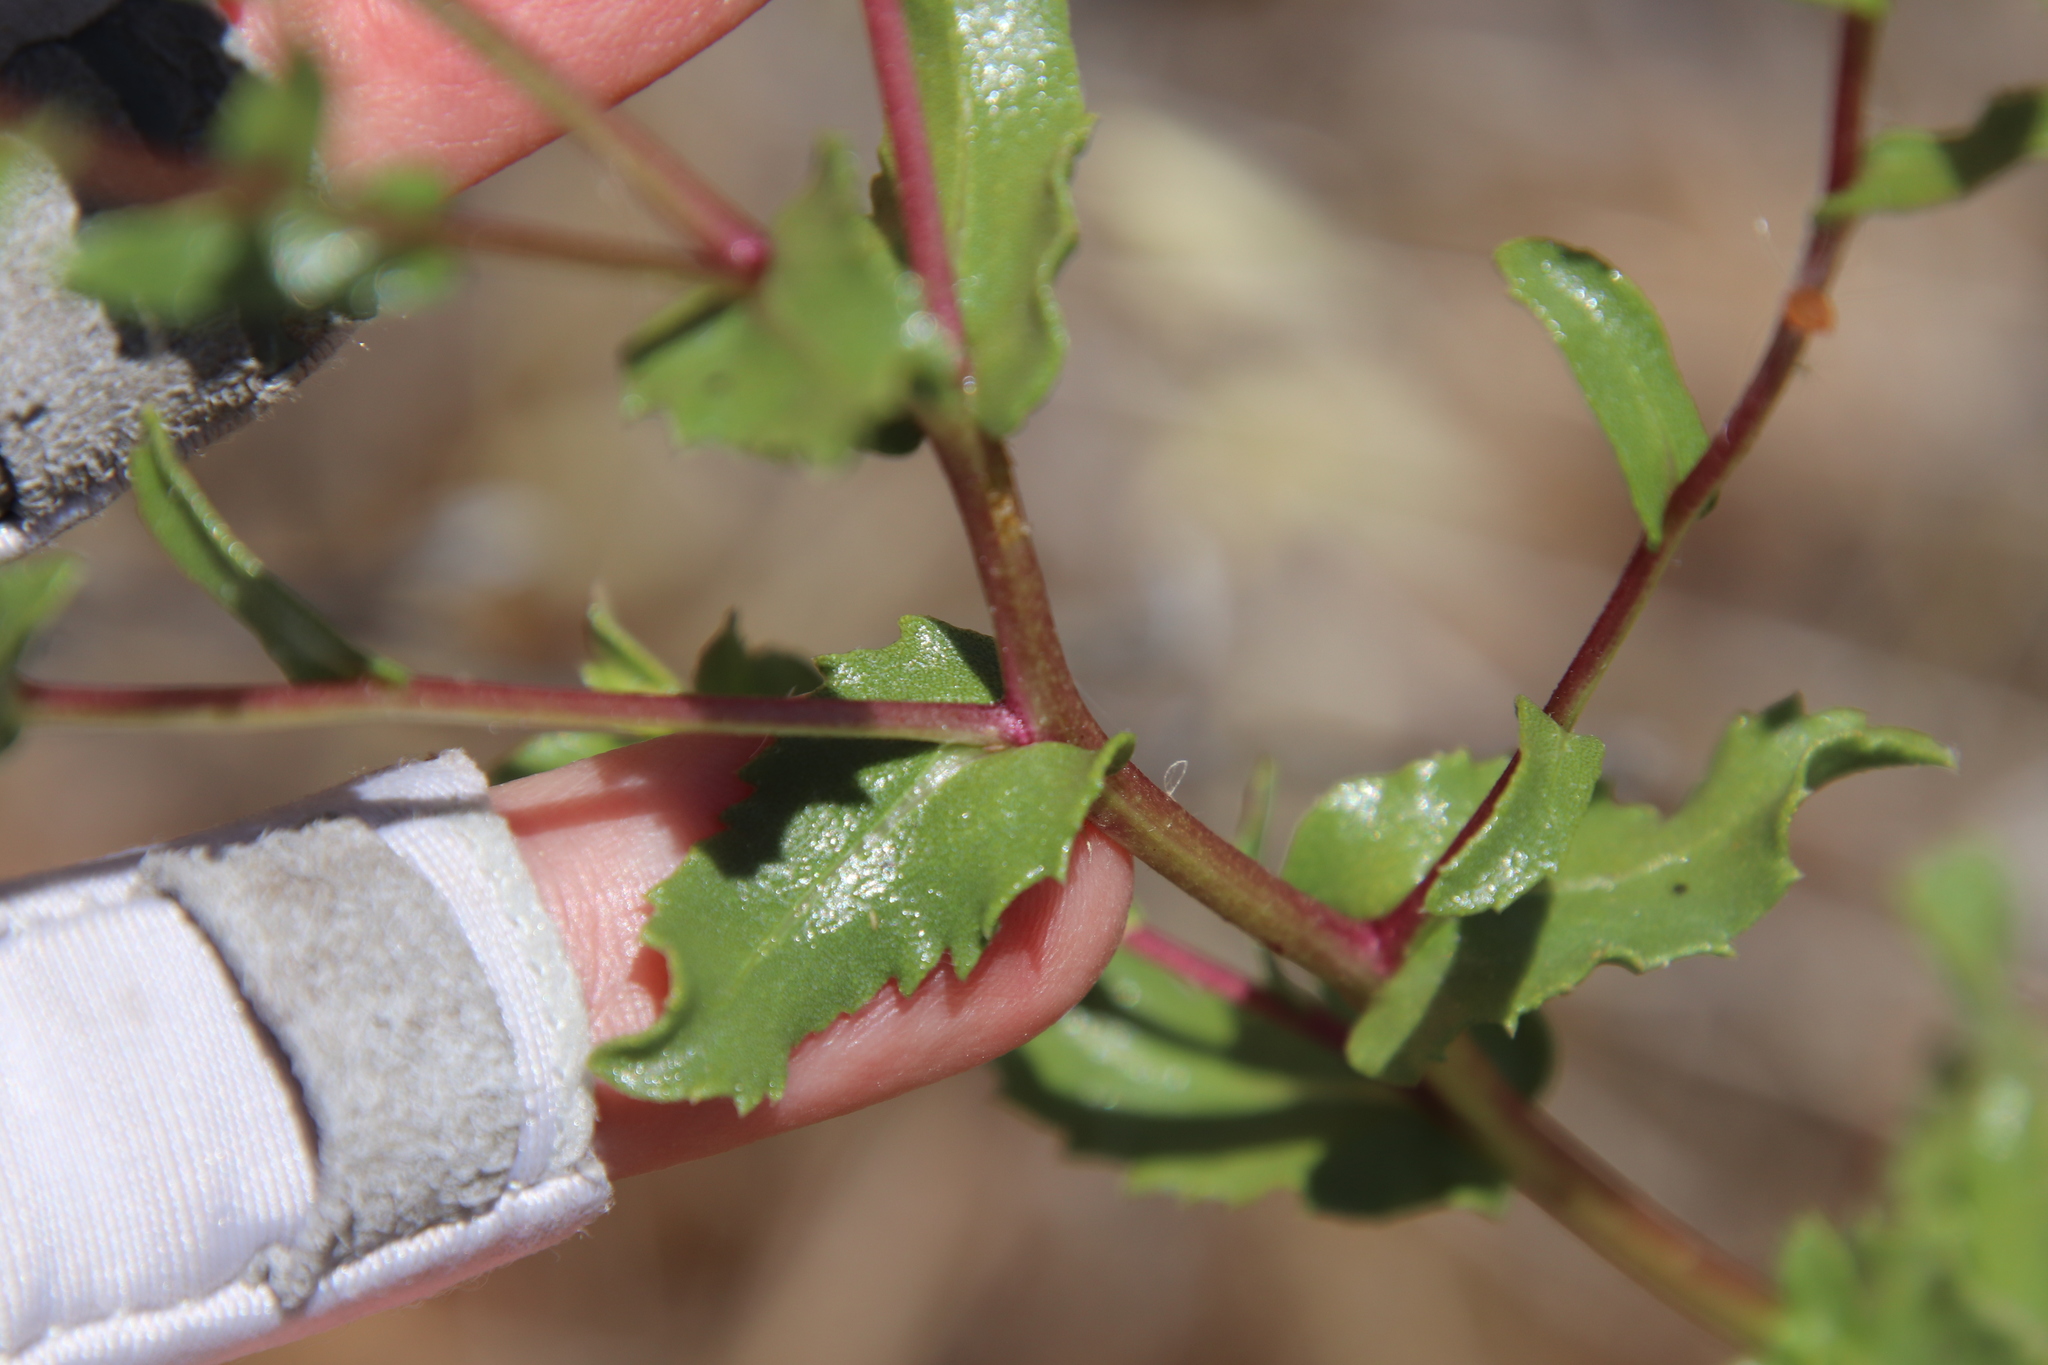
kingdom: Plantae
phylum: Tracheophyta
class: Magnoliopsida
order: Asterales
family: Asteraceae
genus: Grindelia
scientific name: Grindelia hirsutula
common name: Hairy gumweed
